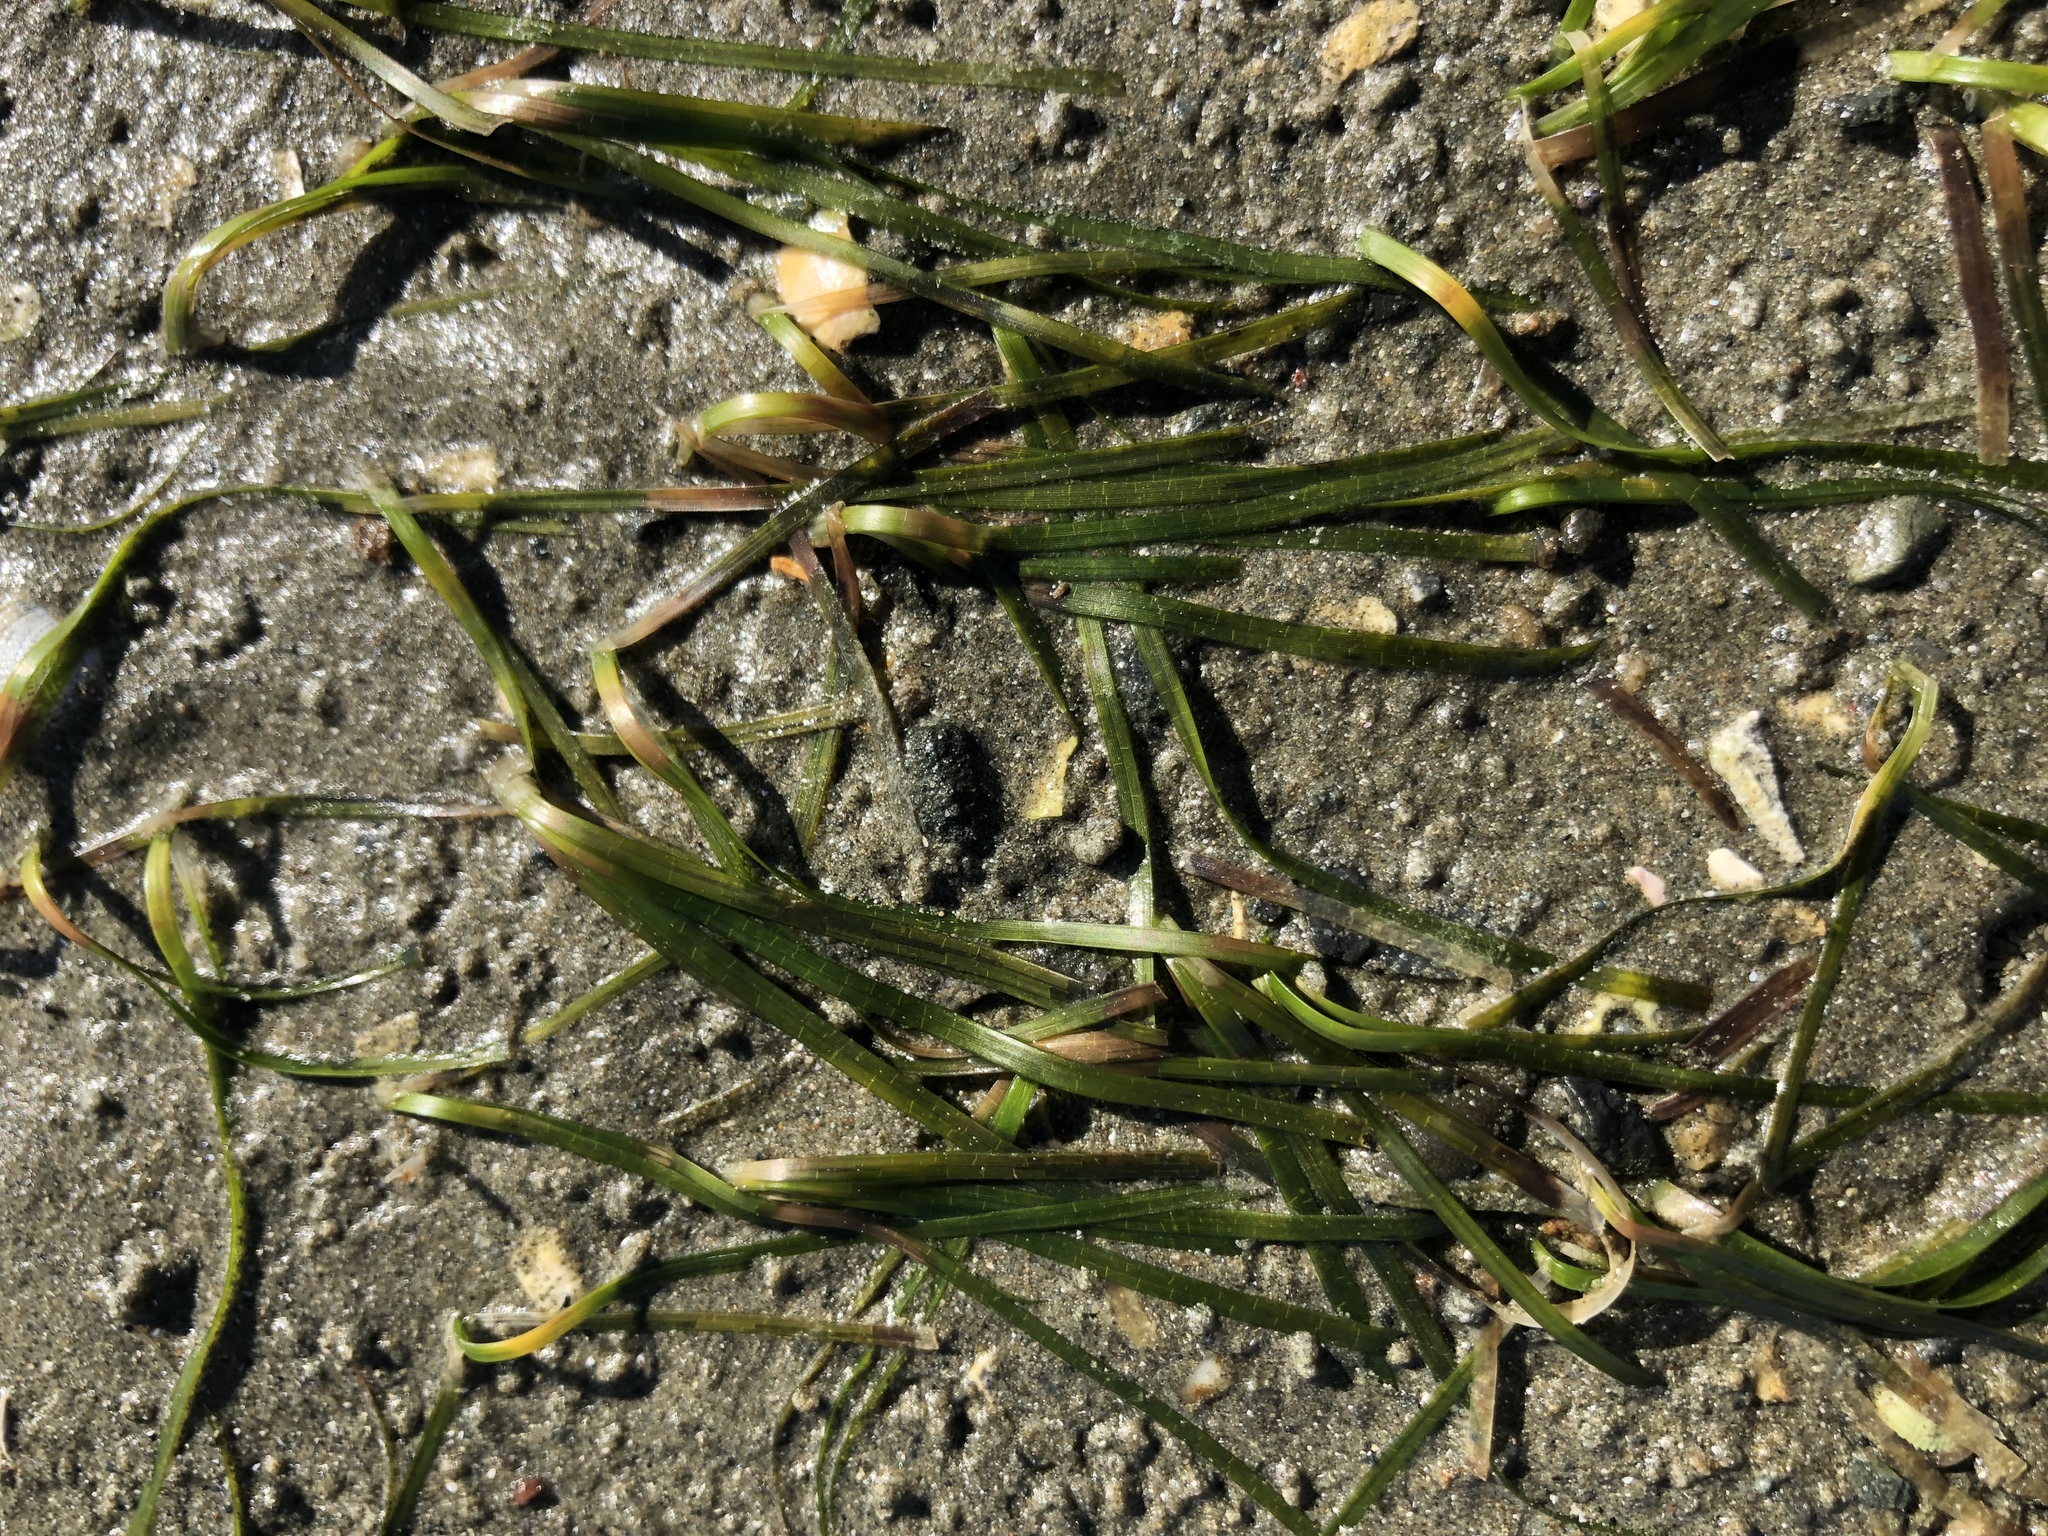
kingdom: Plantae
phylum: Tracheophyta
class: Liliopsida
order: Alismatales
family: Zosteraceae
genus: Zostera
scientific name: Zostera novazelandica
